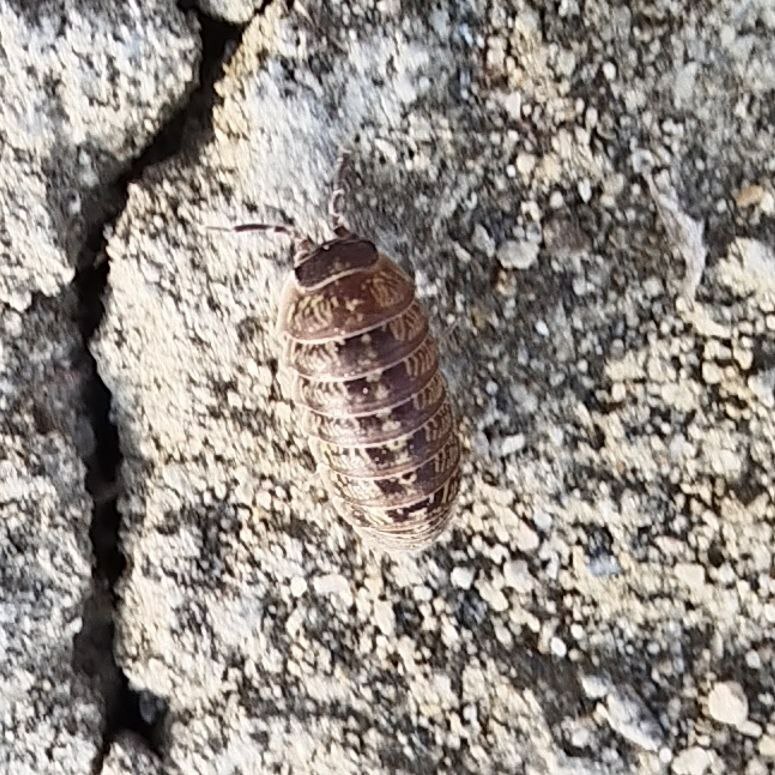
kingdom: Animalia
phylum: Arthropoda
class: Malacostraca
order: Isopoda
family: Armadillidiidae
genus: Armadillidium
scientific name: Armadillidium vulgare
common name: Common pill woodlouse
